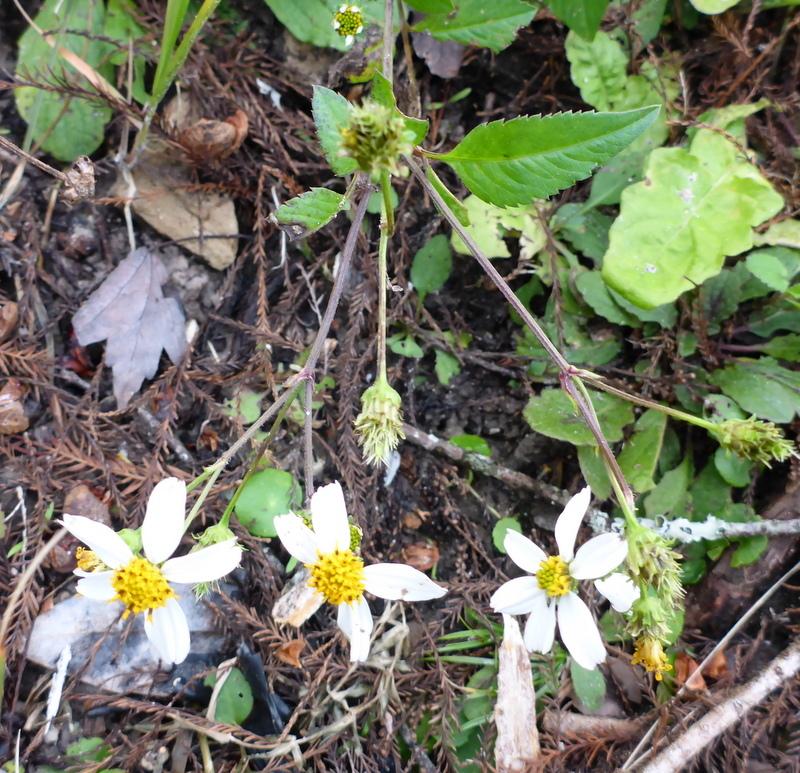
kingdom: Plantae
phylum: Tracheophyta
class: Magnoliopsida
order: Asterales
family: Asteraceae
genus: Bidens
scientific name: Bidens alba
